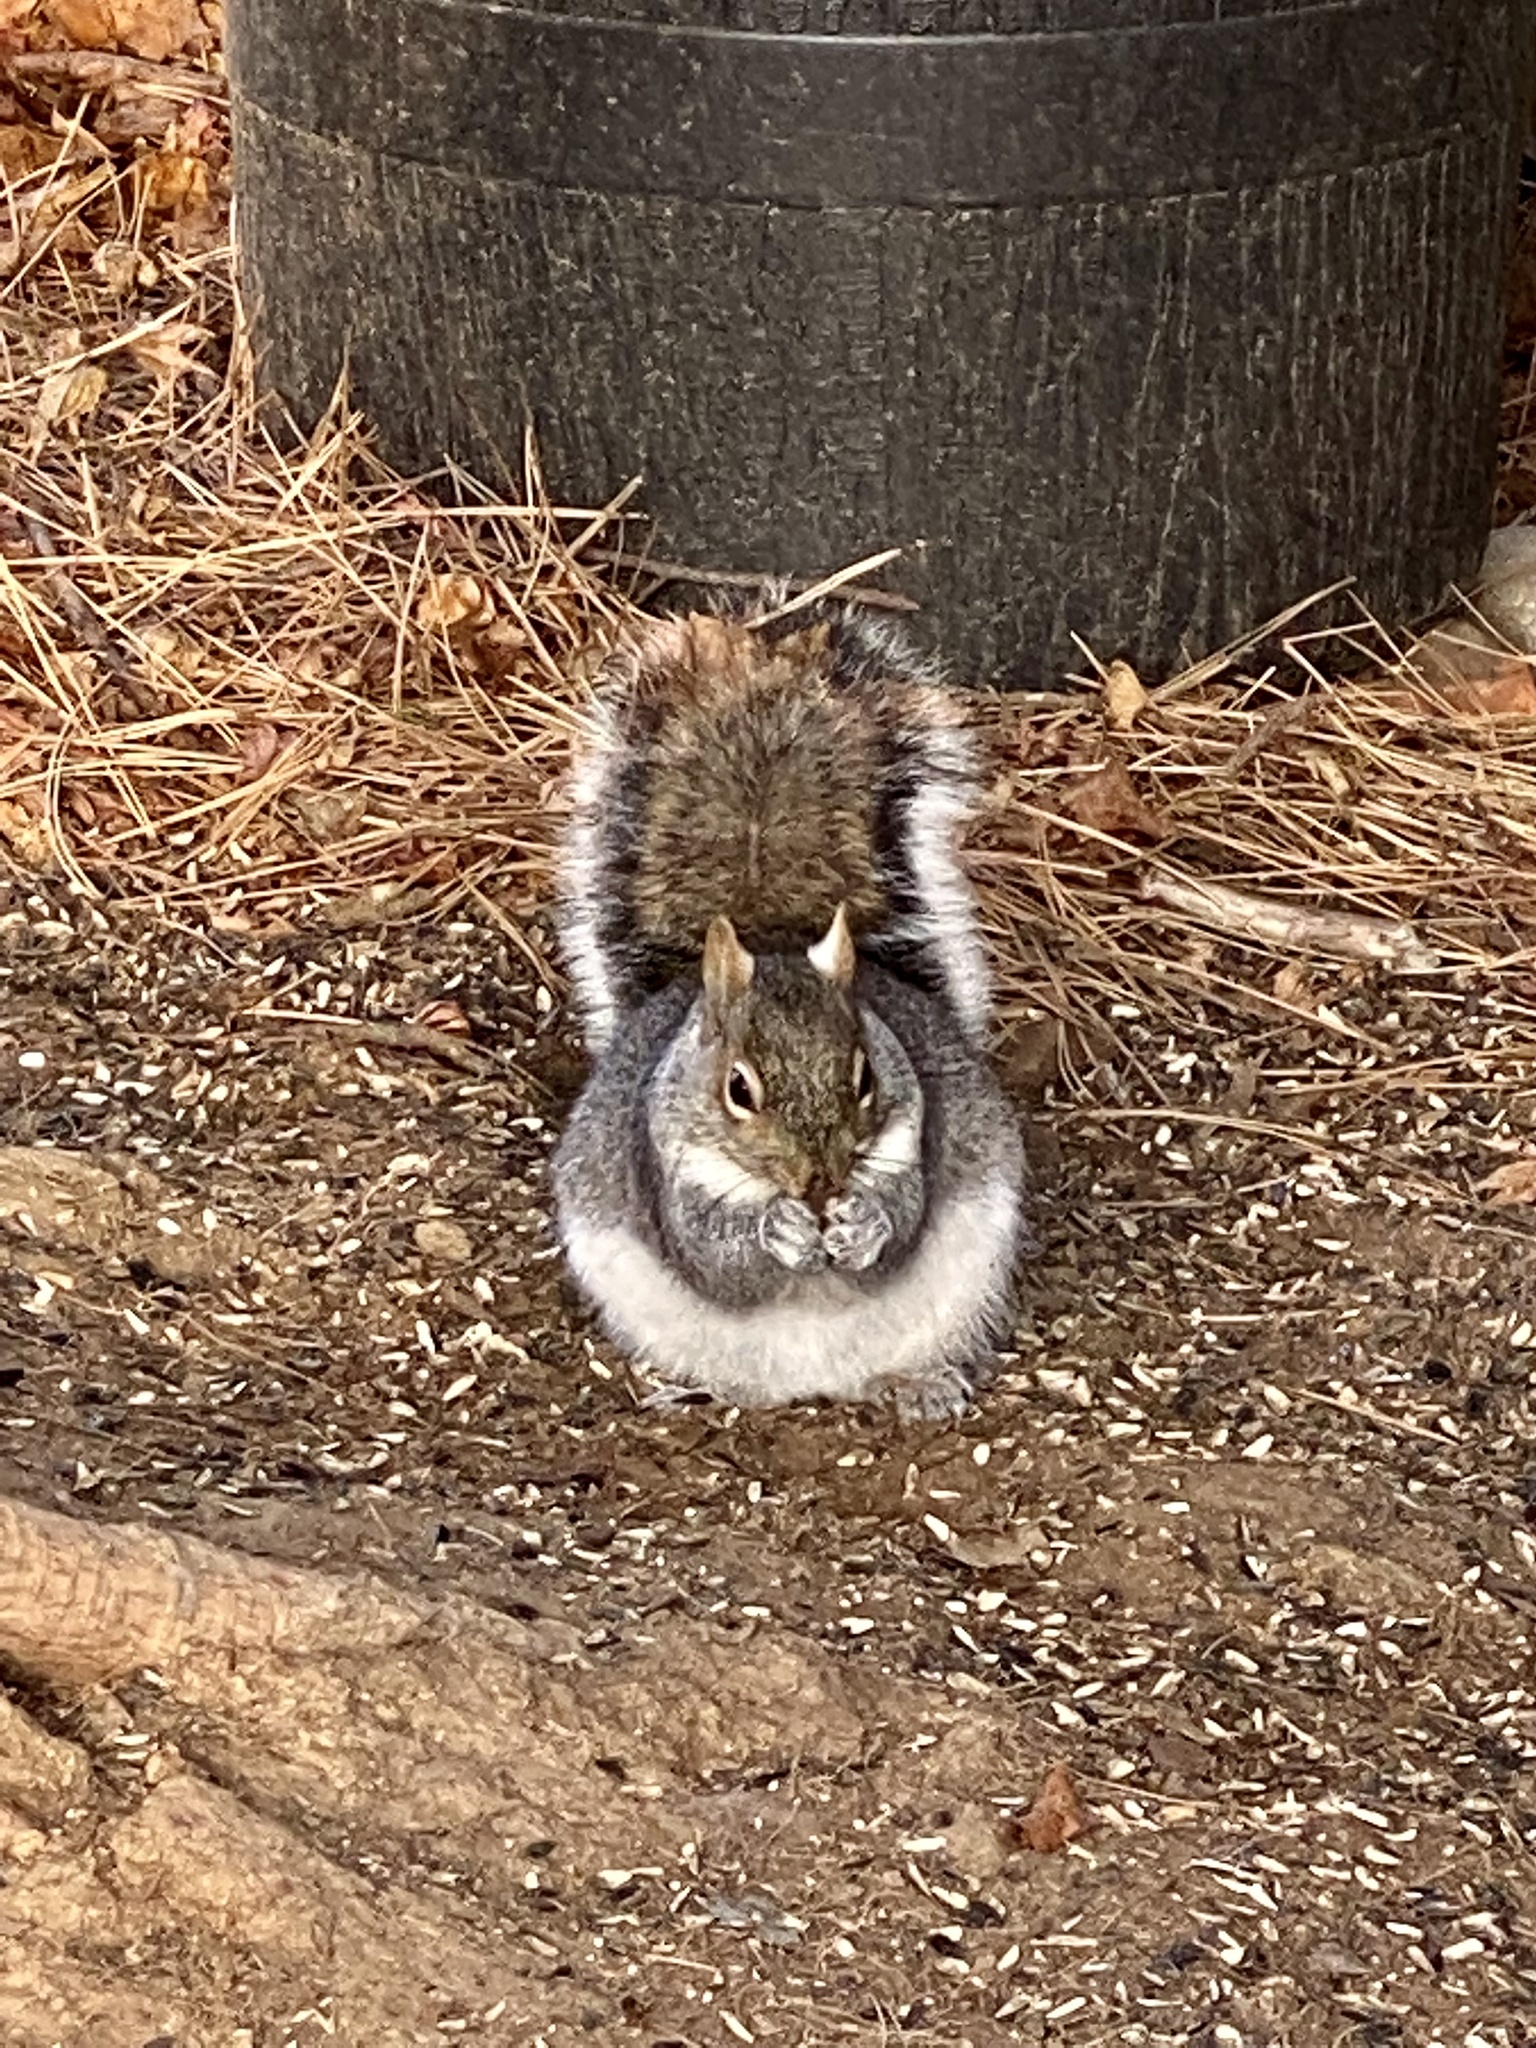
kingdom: Animalia
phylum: Chordata
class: Mammalia
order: Rodentia
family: Sciuridae
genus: Sciurus
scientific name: Sciurus carolinensis
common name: Eastern gray squirrel
